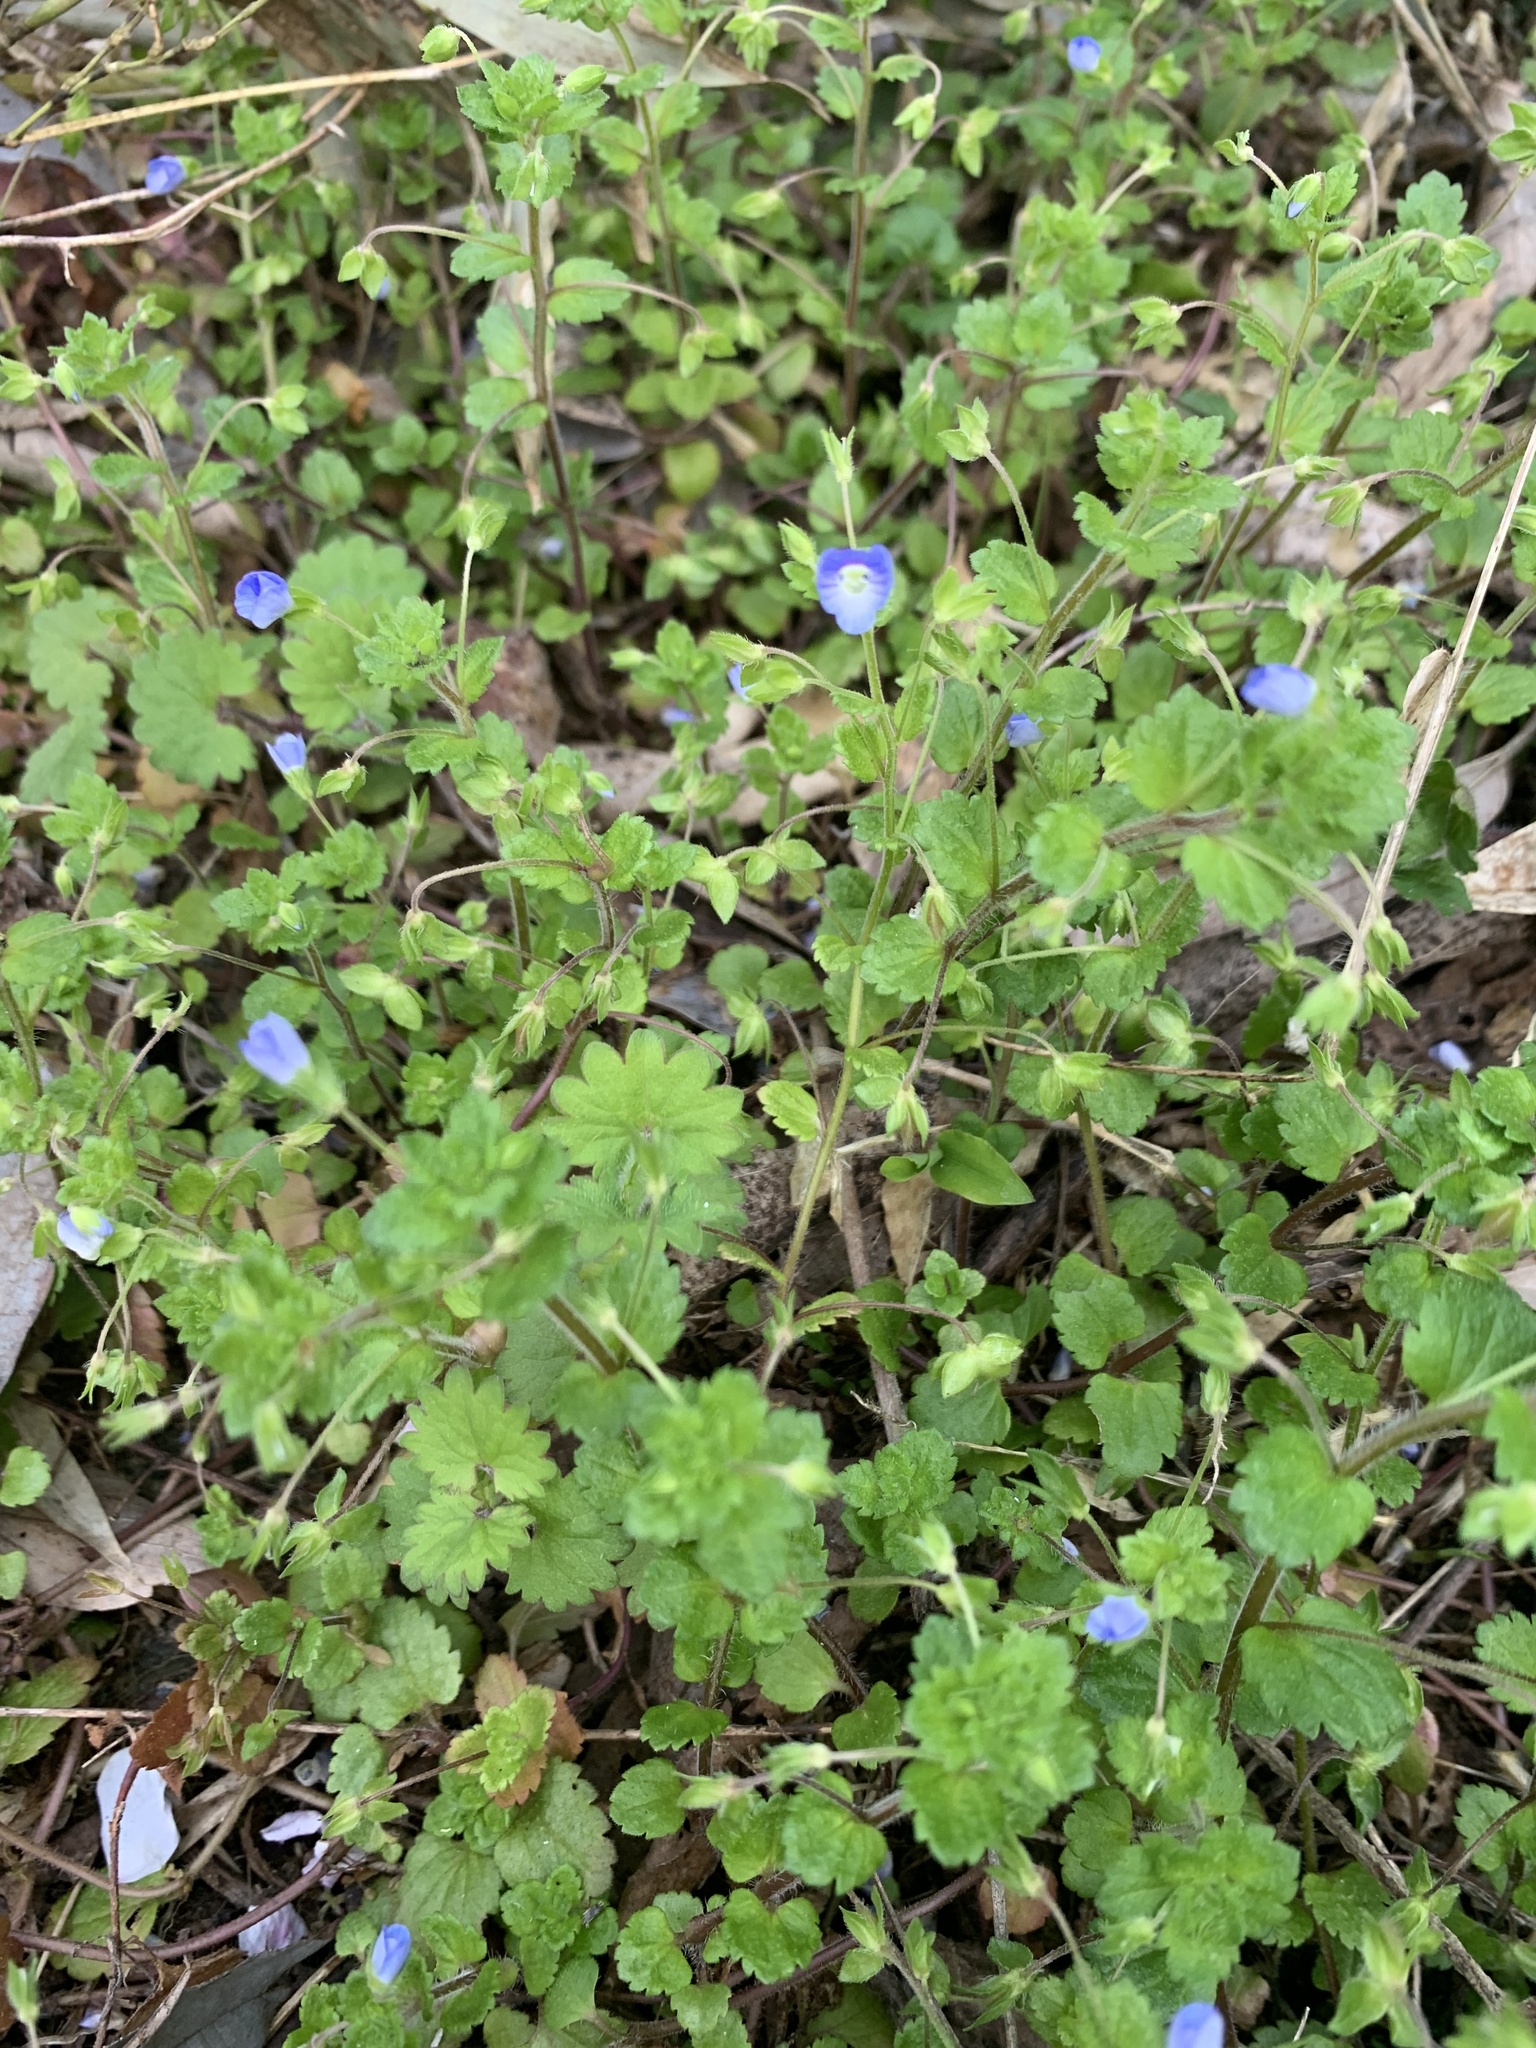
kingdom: Plantae
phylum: Tracheophyta
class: Magnoliopsida
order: Lamiales
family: Plantaginaceae
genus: Veronica
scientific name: Veronica persica
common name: Common field-speedwell
